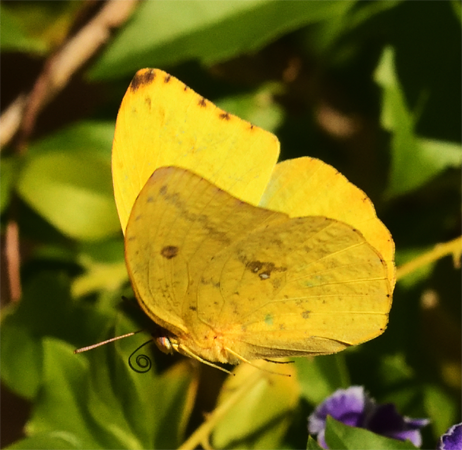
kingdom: Animalia
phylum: Arthropoda
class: Insecta
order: Lepidoptera
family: Pieridae
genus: Phoebis
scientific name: Phoebis agarithe
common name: Large orange sulphur
